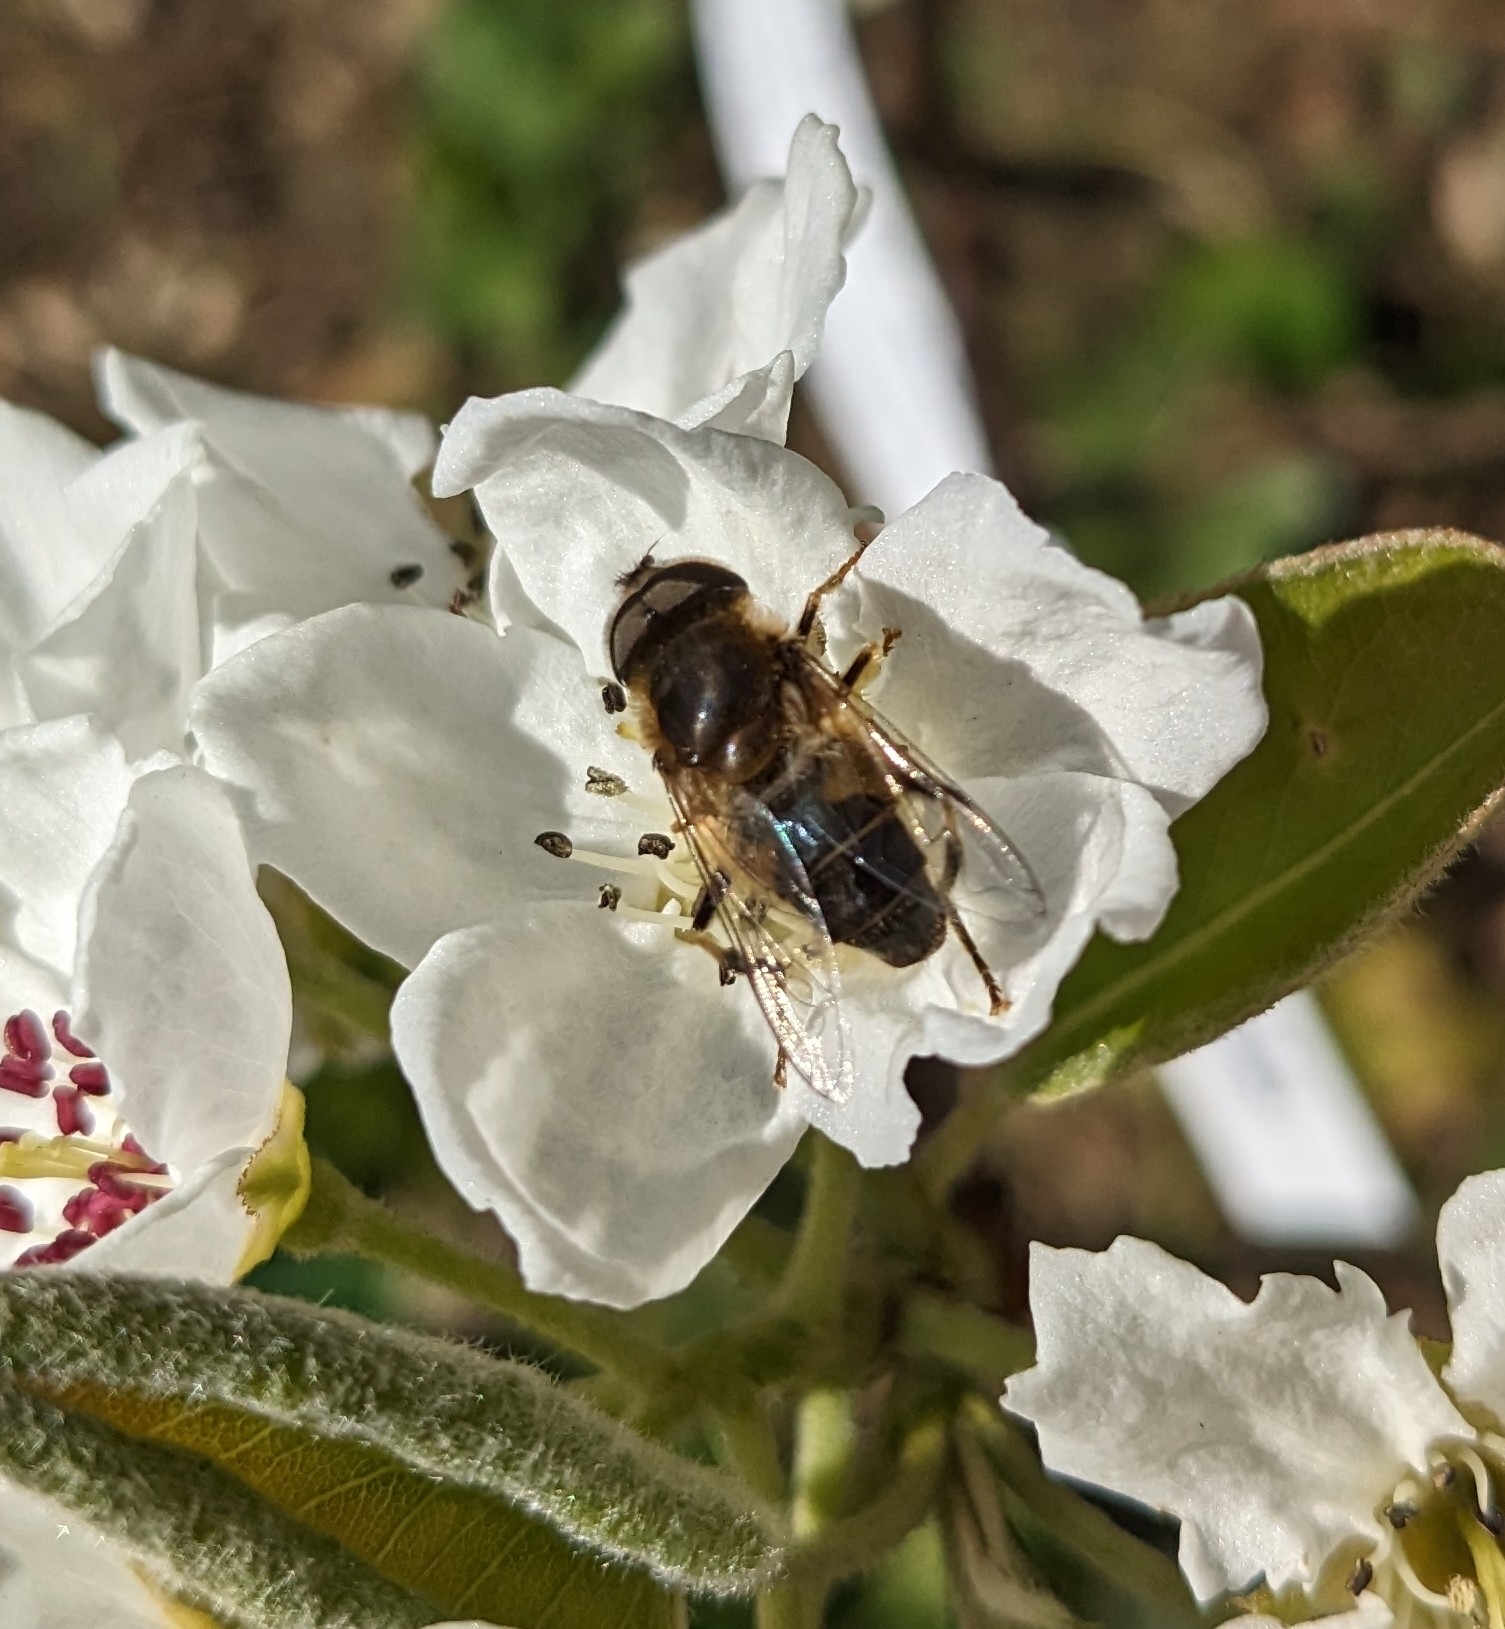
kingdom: Animalia
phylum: Arthropoda
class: Insecta
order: Diptera
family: Syrphidae
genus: Eristalis
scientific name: Eristalis pertinax
